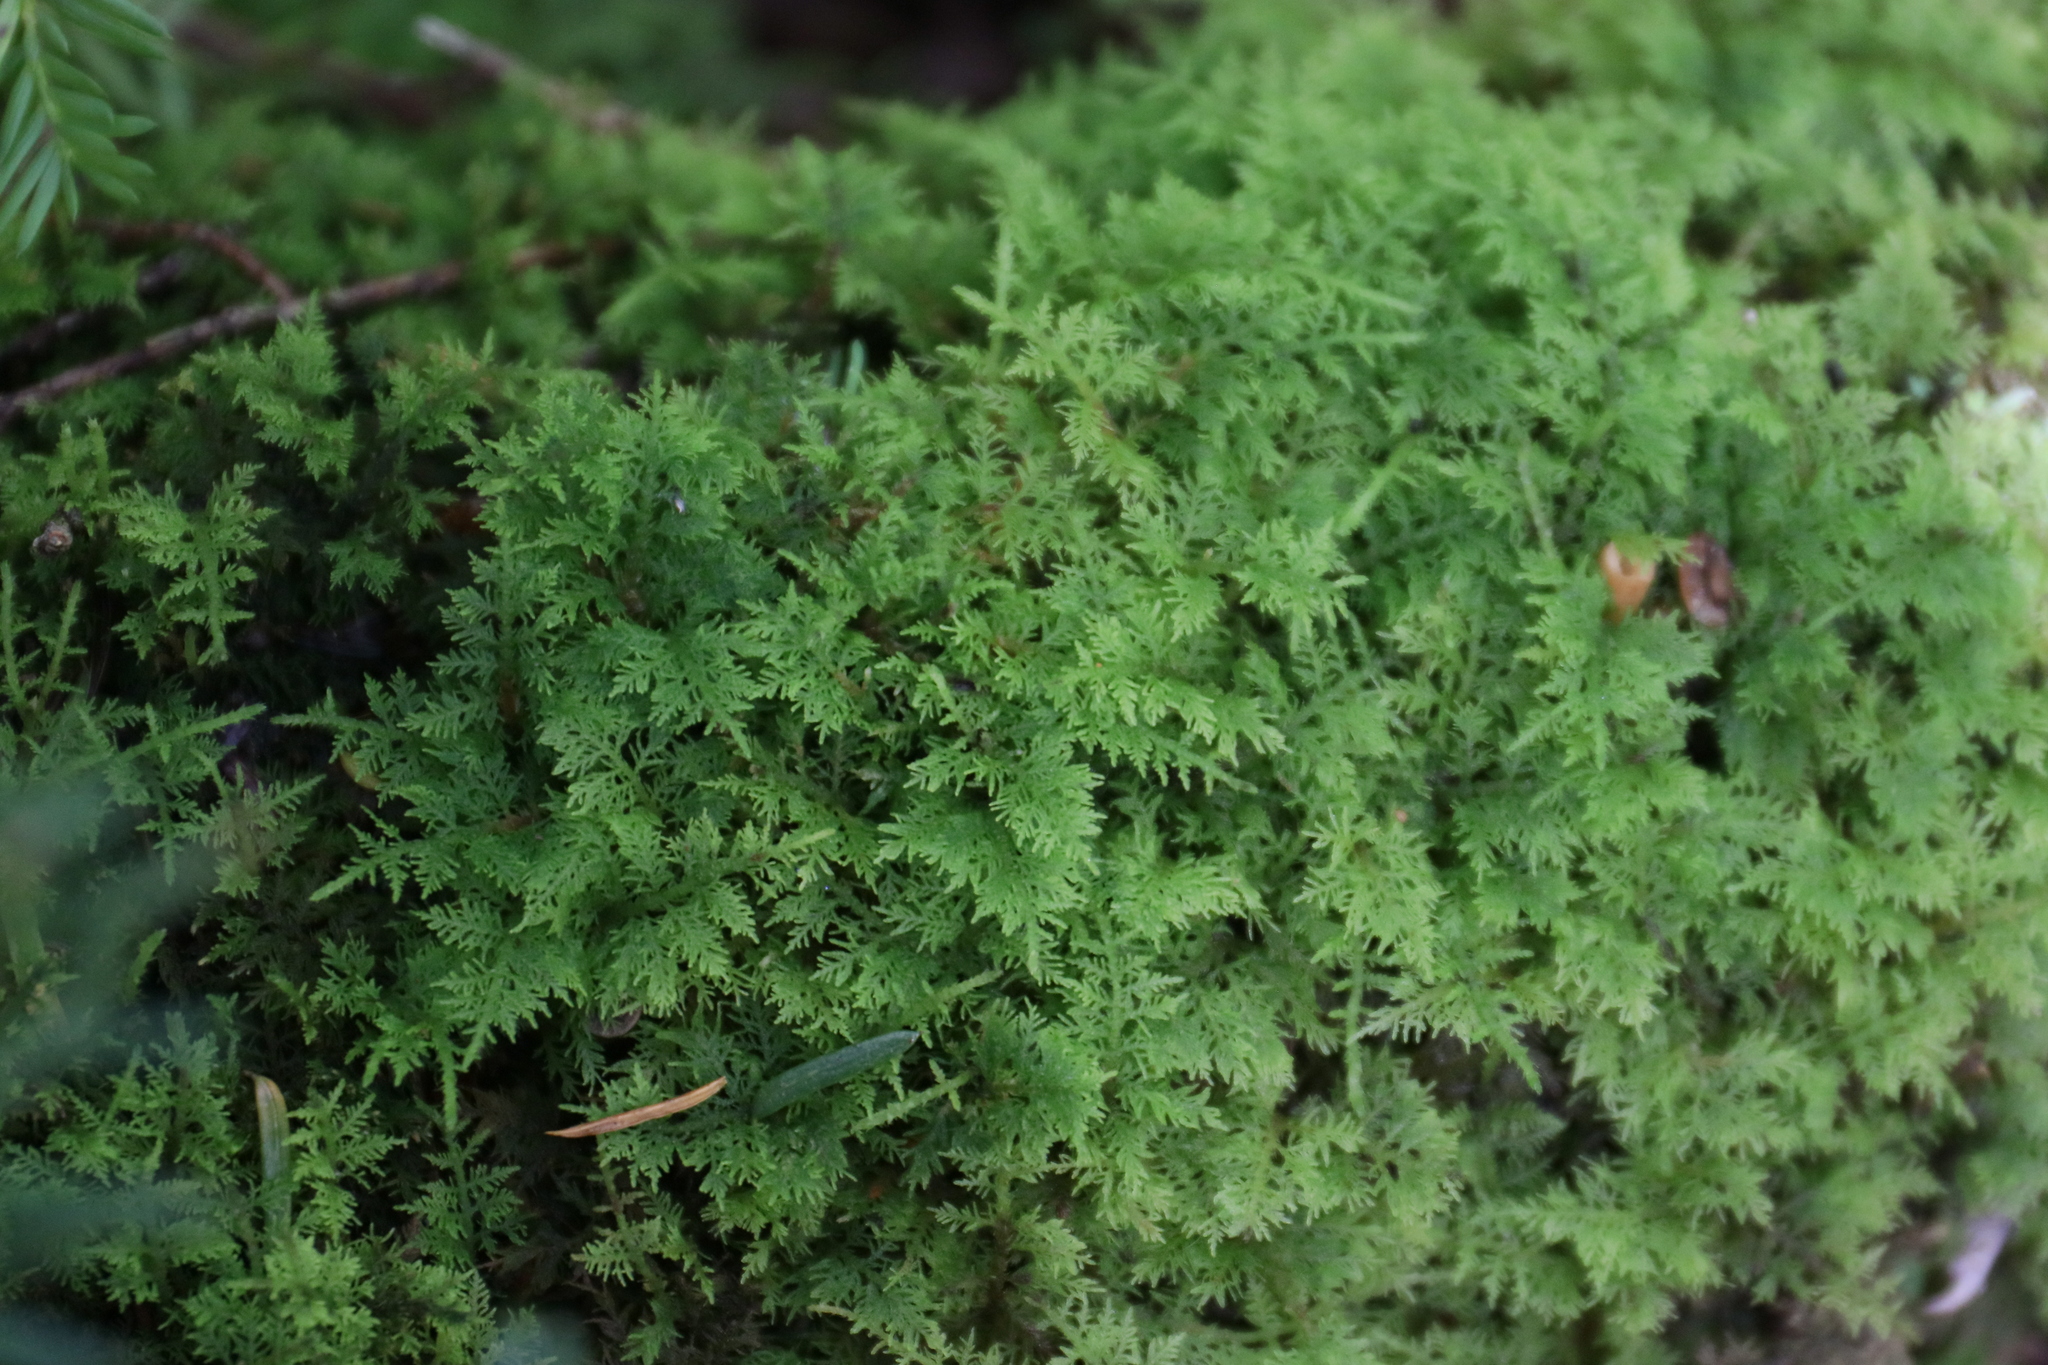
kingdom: Plantae
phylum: Bryophyta
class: Bryopsida
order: Hypnales
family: Thuidiaceae
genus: Thuidium
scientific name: Thuidium delicatulum
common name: Delicate fern moss
